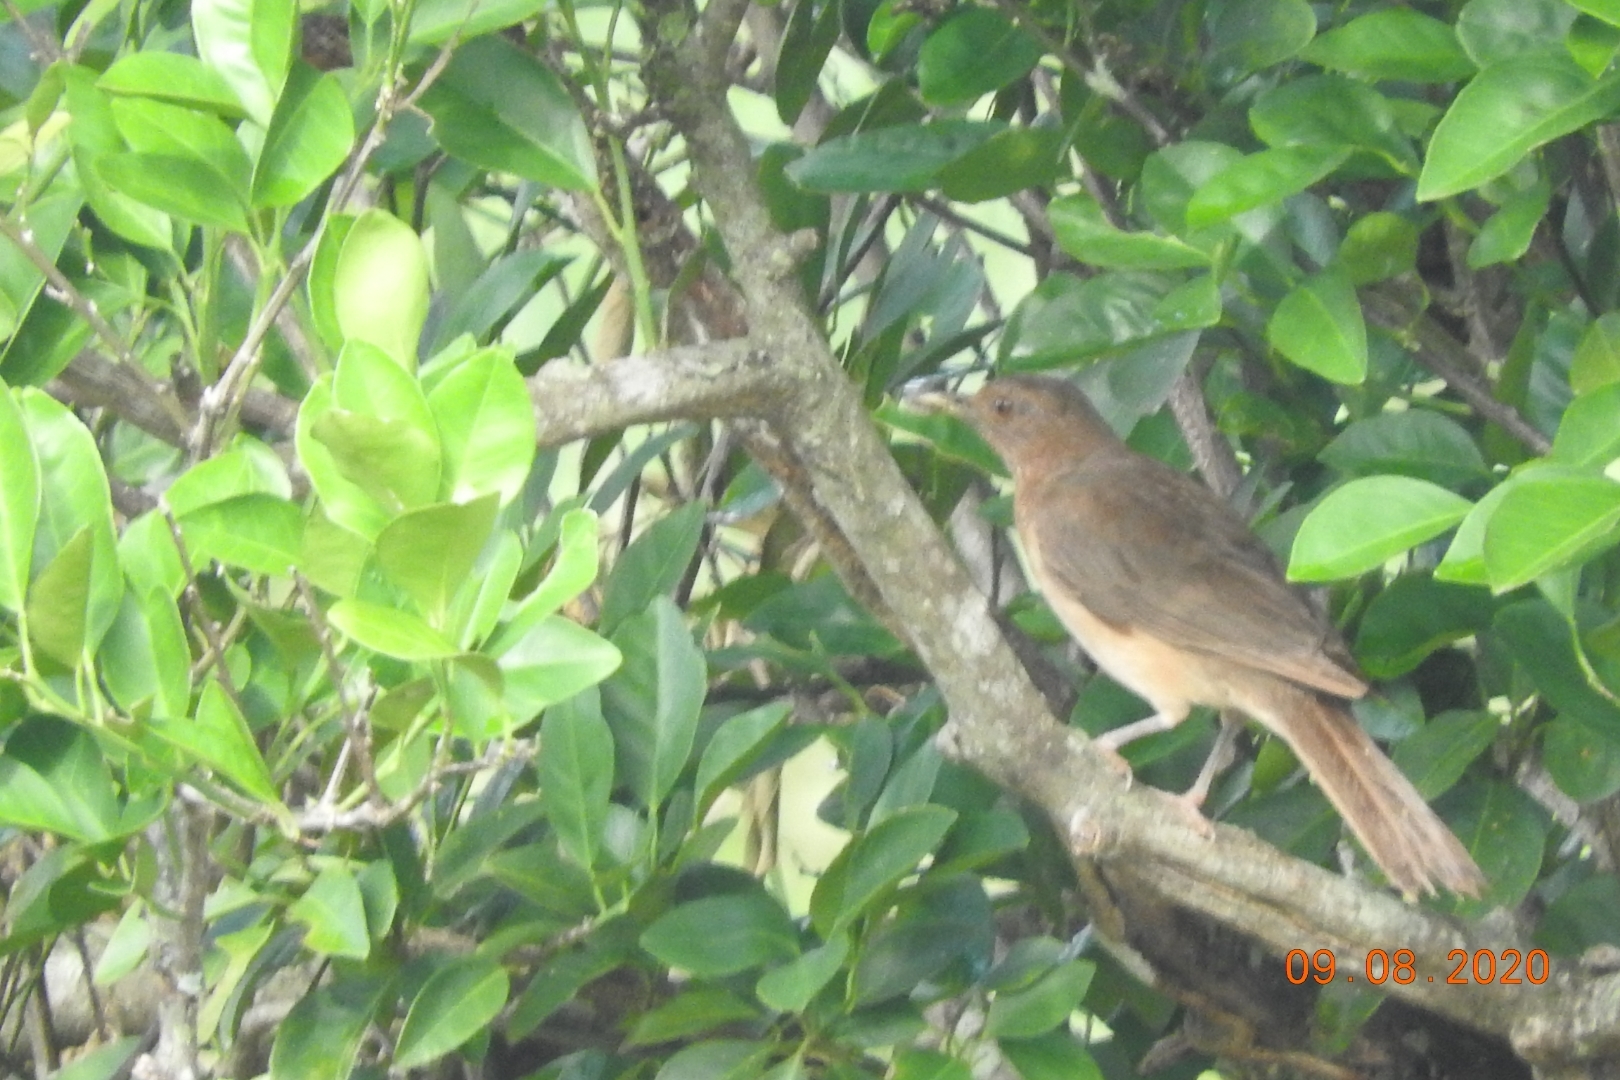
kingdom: Animalia
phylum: Chordata
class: Aves
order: Passeriformes
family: Turdidae
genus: Turdus
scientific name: Turdus grayi
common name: Clay-colored thrush
